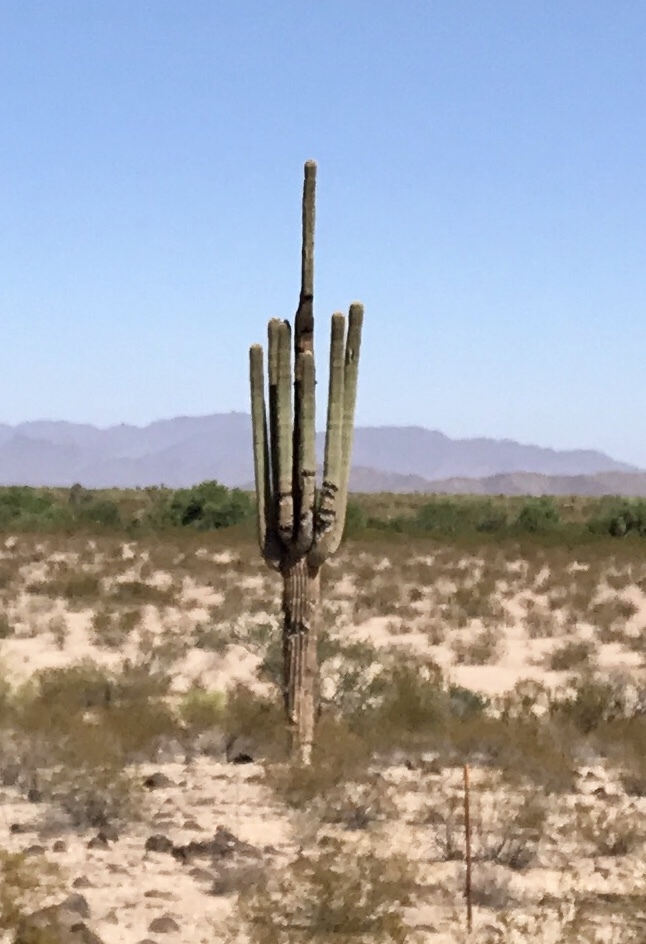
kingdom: Plantae
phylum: Tracheophyta
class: Magnoliopsida
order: Caryophyllales
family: Cactaceae
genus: Carnegiea
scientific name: Carnegiea gigantea
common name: Saguaro
